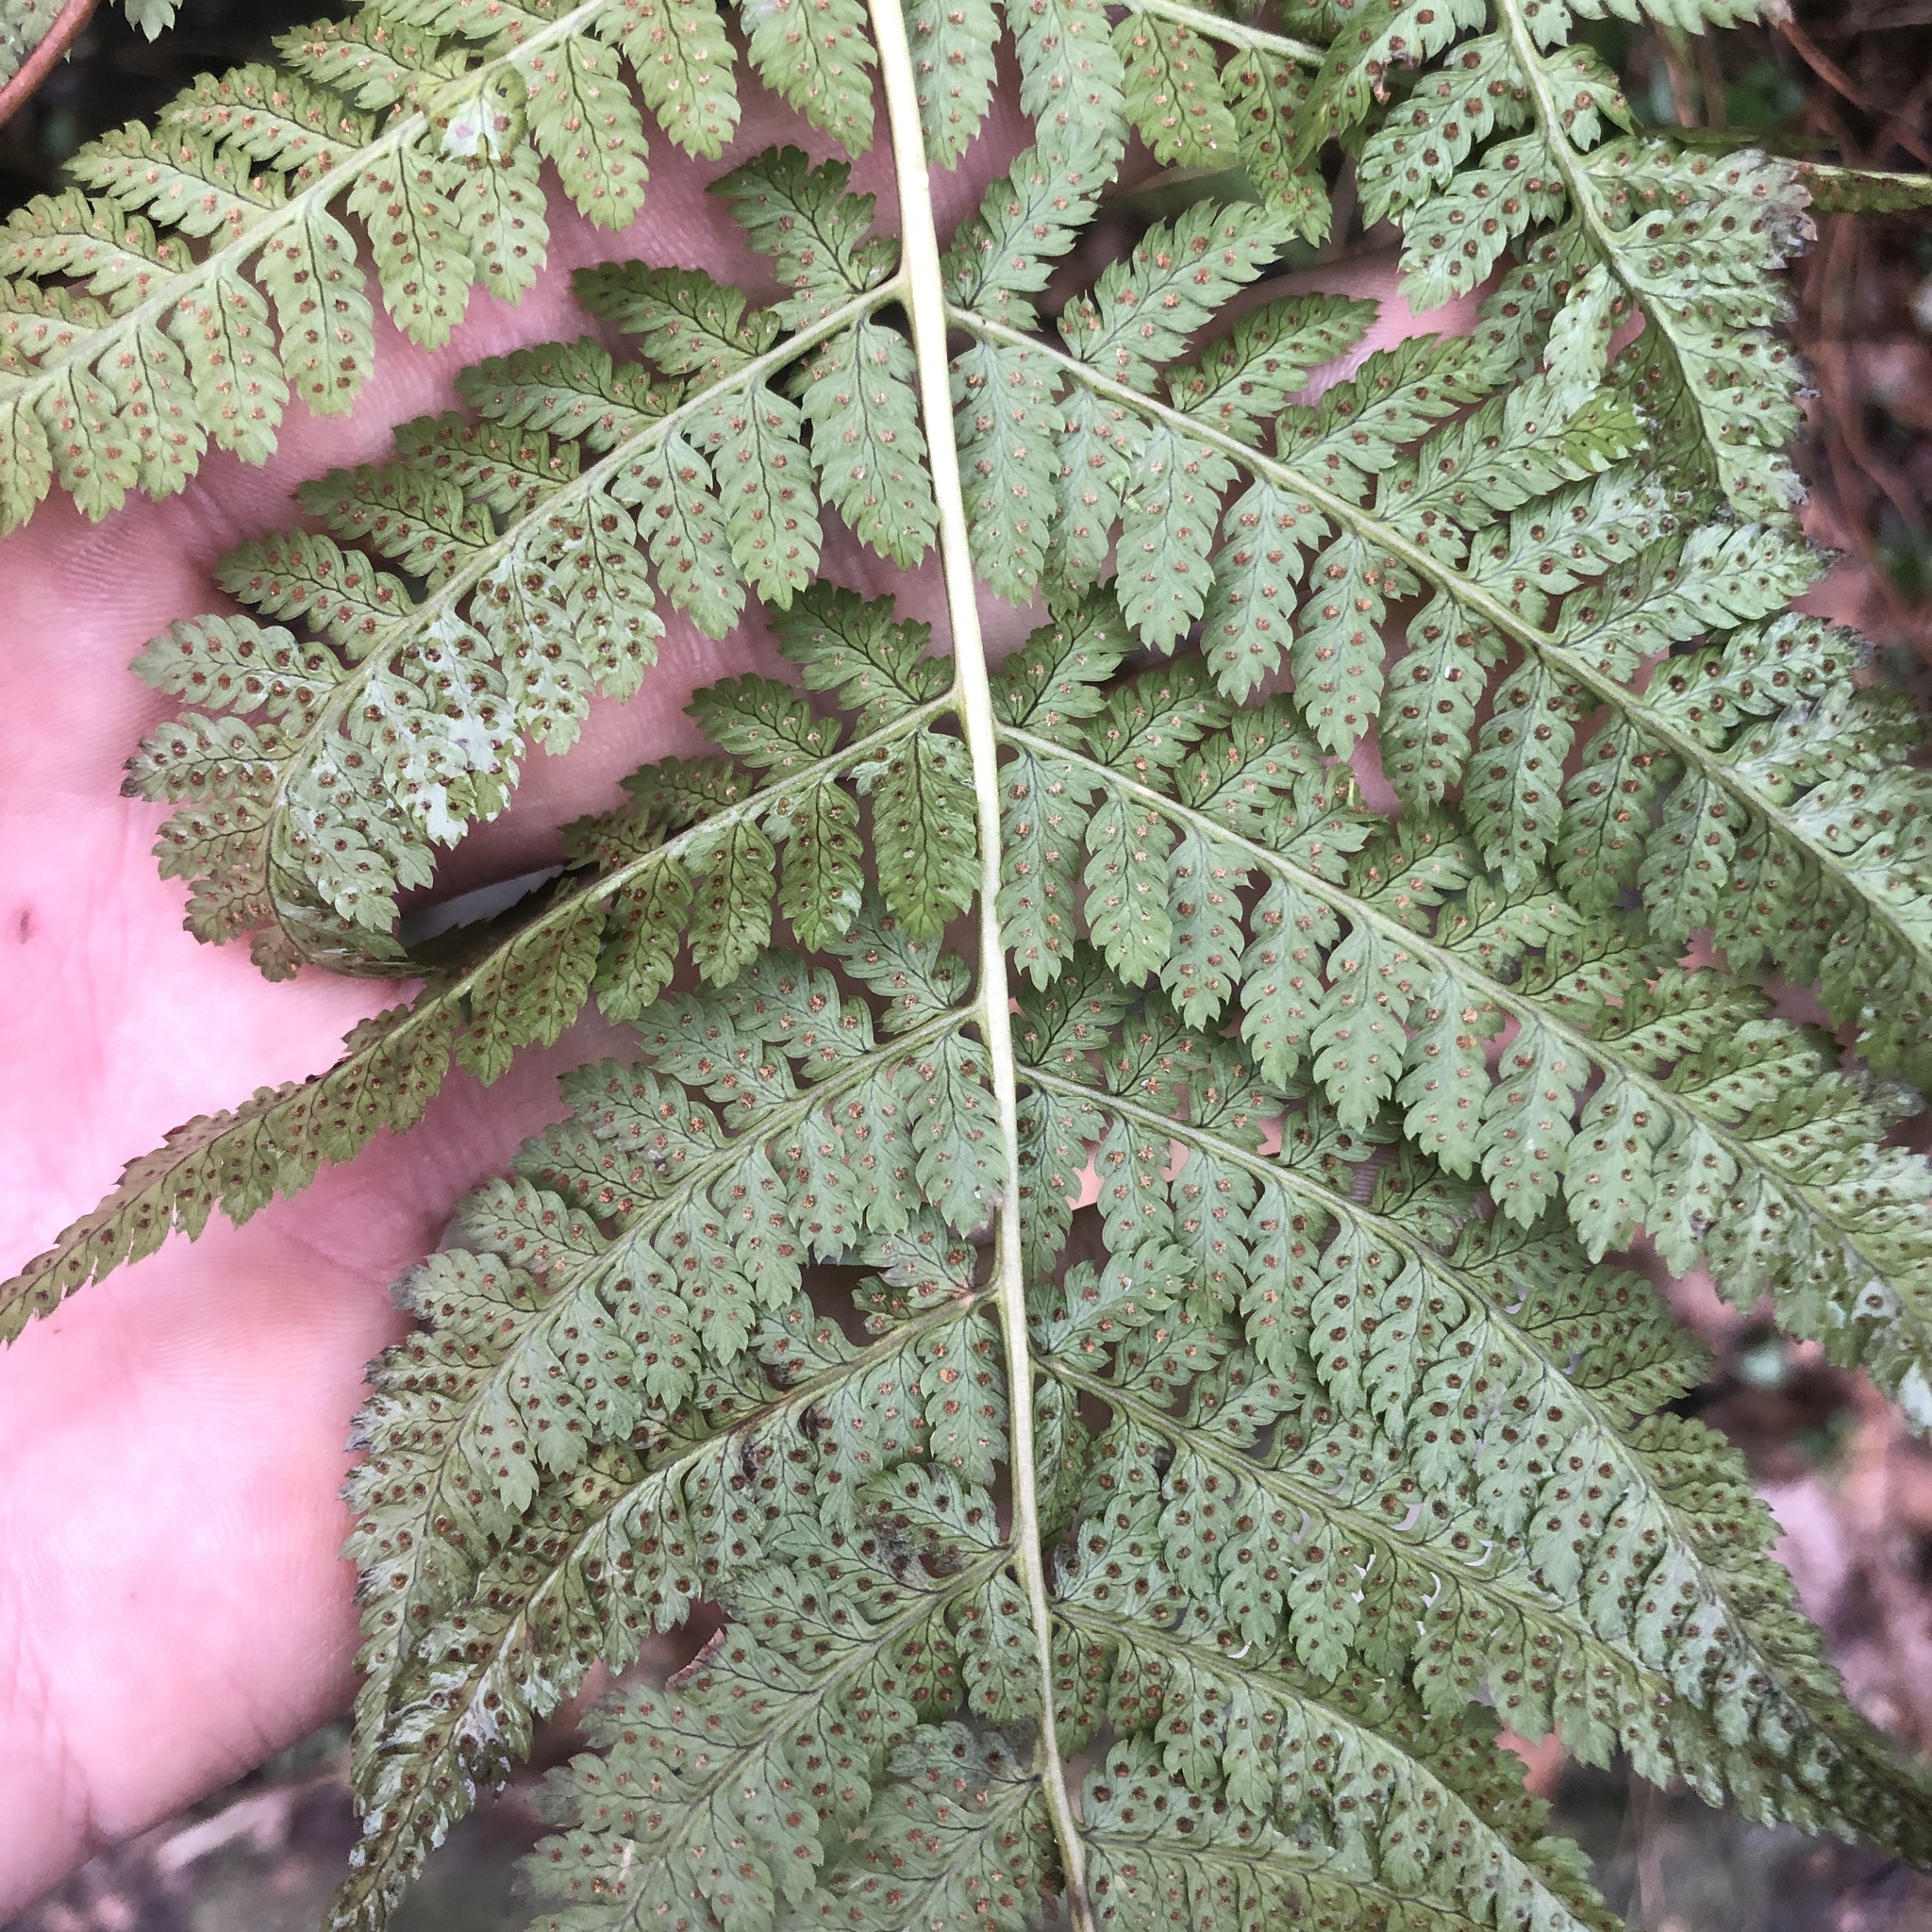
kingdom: Plantae
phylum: Tracheophyta
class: Polypodiopsida
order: Polypodiales
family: Dryopteridaceae
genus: Dryopteris
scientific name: Dryopteris intermedia
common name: Evergreen wood fern
